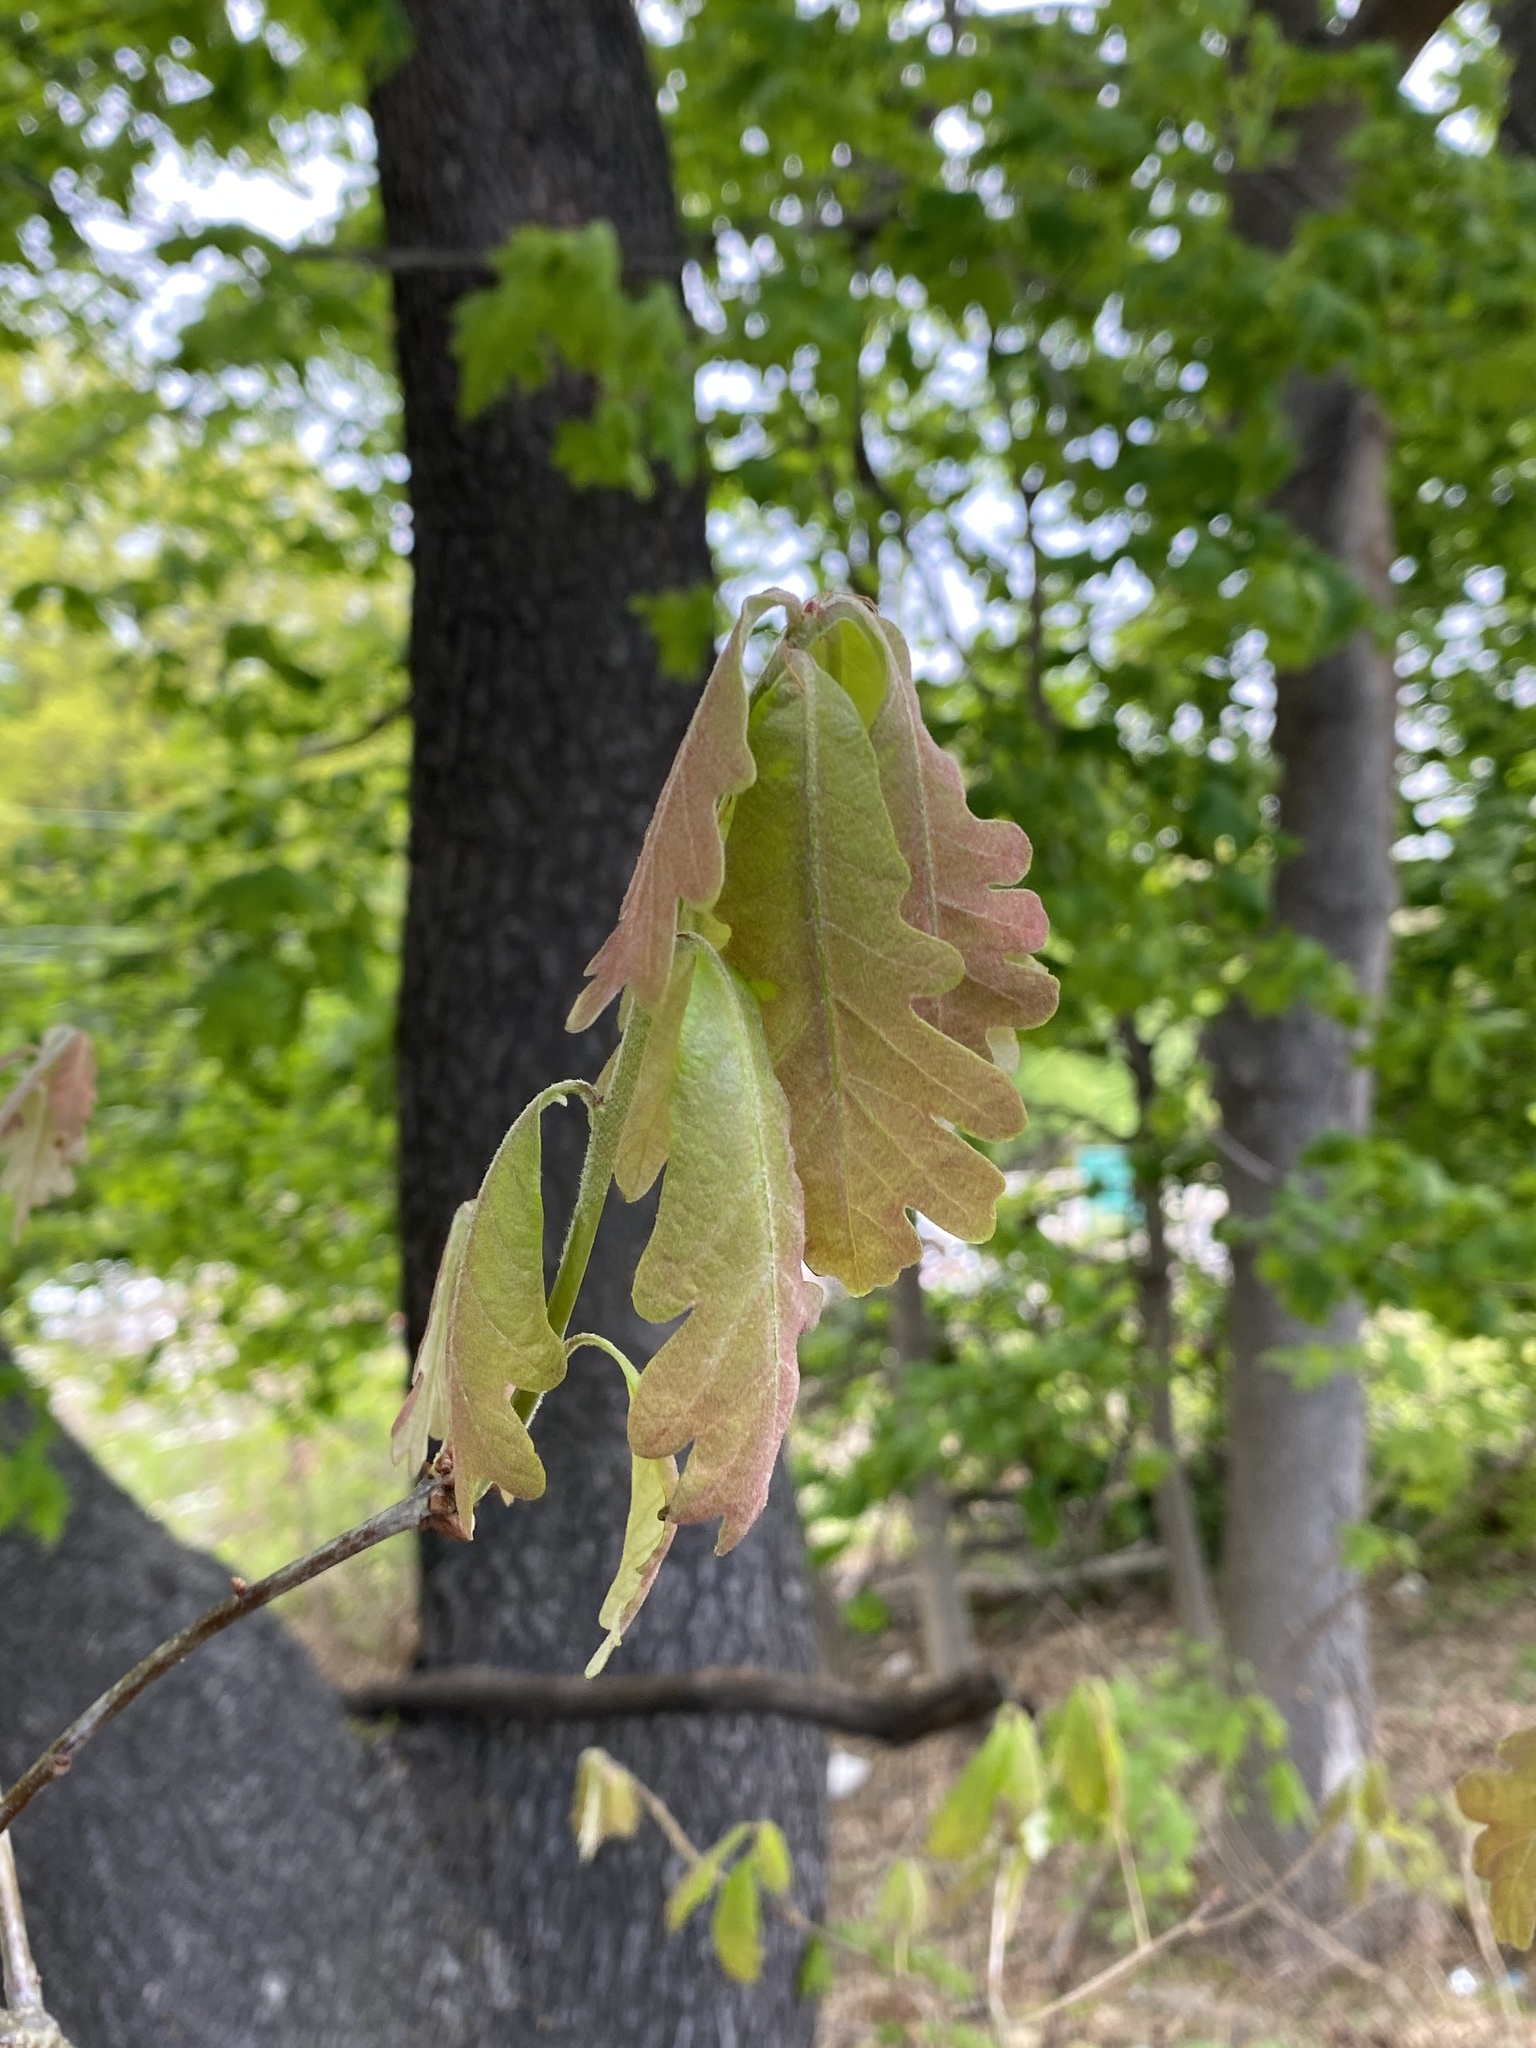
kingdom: Plantae
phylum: Tracheophyta
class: Magnoliopsida
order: Fagales
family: Fagaceae
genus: Quercus
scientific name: Quercus alba
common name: White oak
